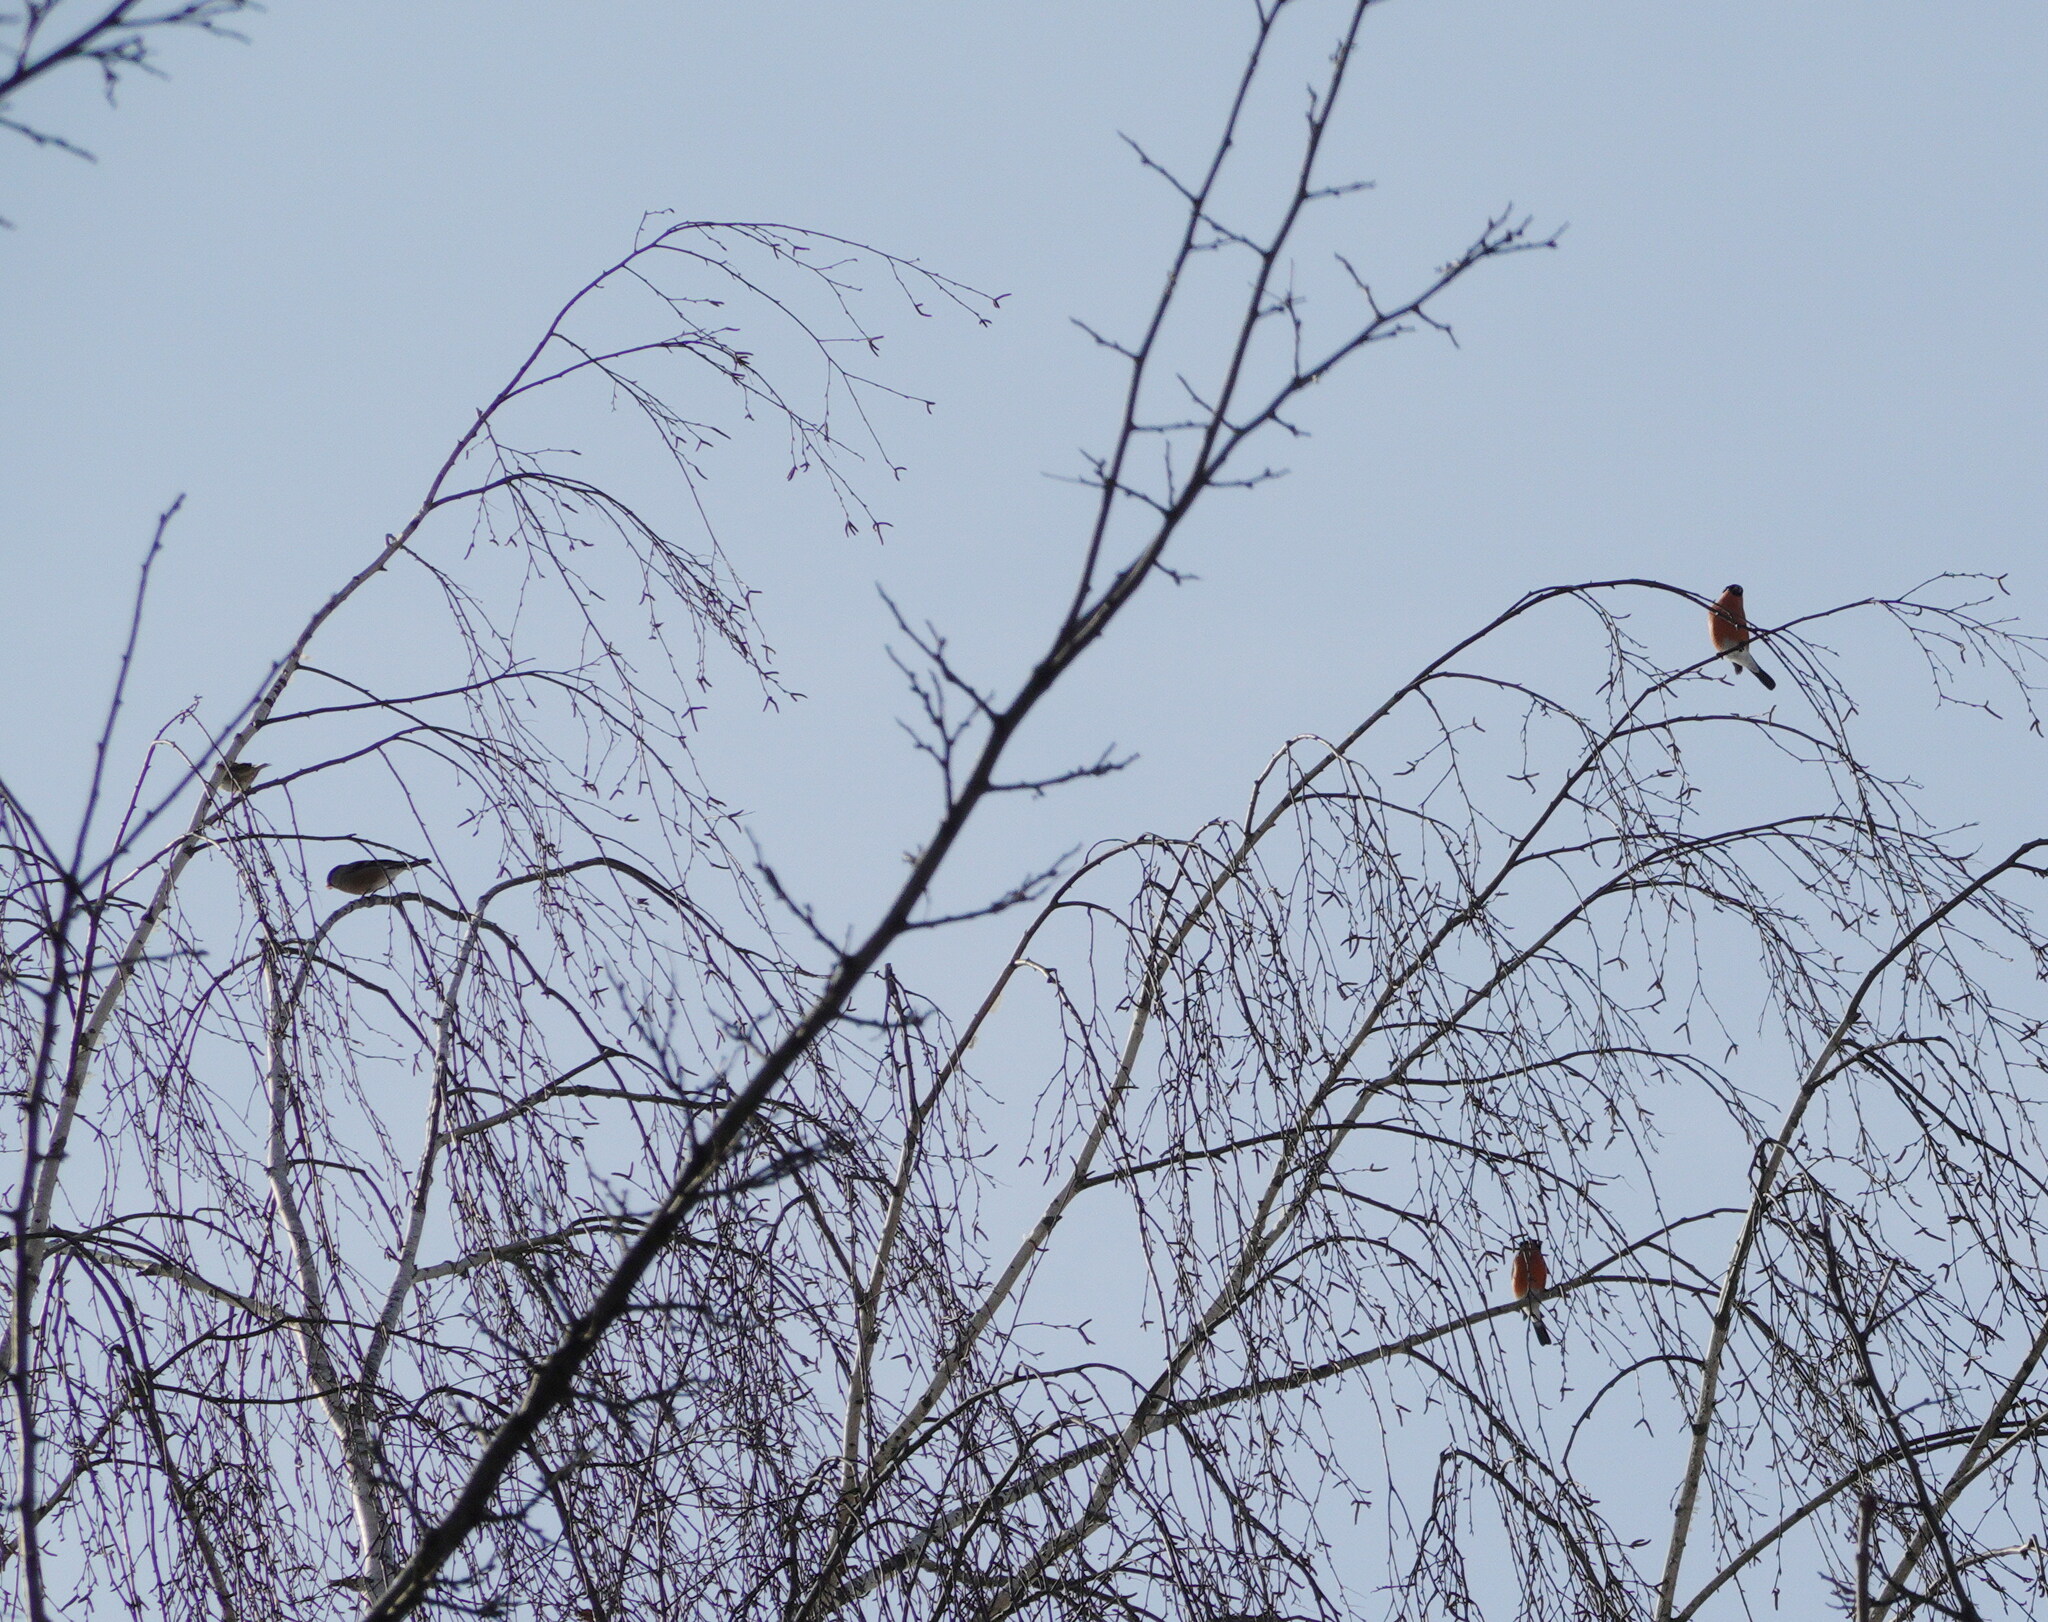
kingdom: Animalia
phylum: Chordata
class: Aves
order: Passeriformes
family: Fringillidae
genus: Pyrrhula
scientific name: Pyrrhula pyrrhula
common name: Eurasian bullfinch
